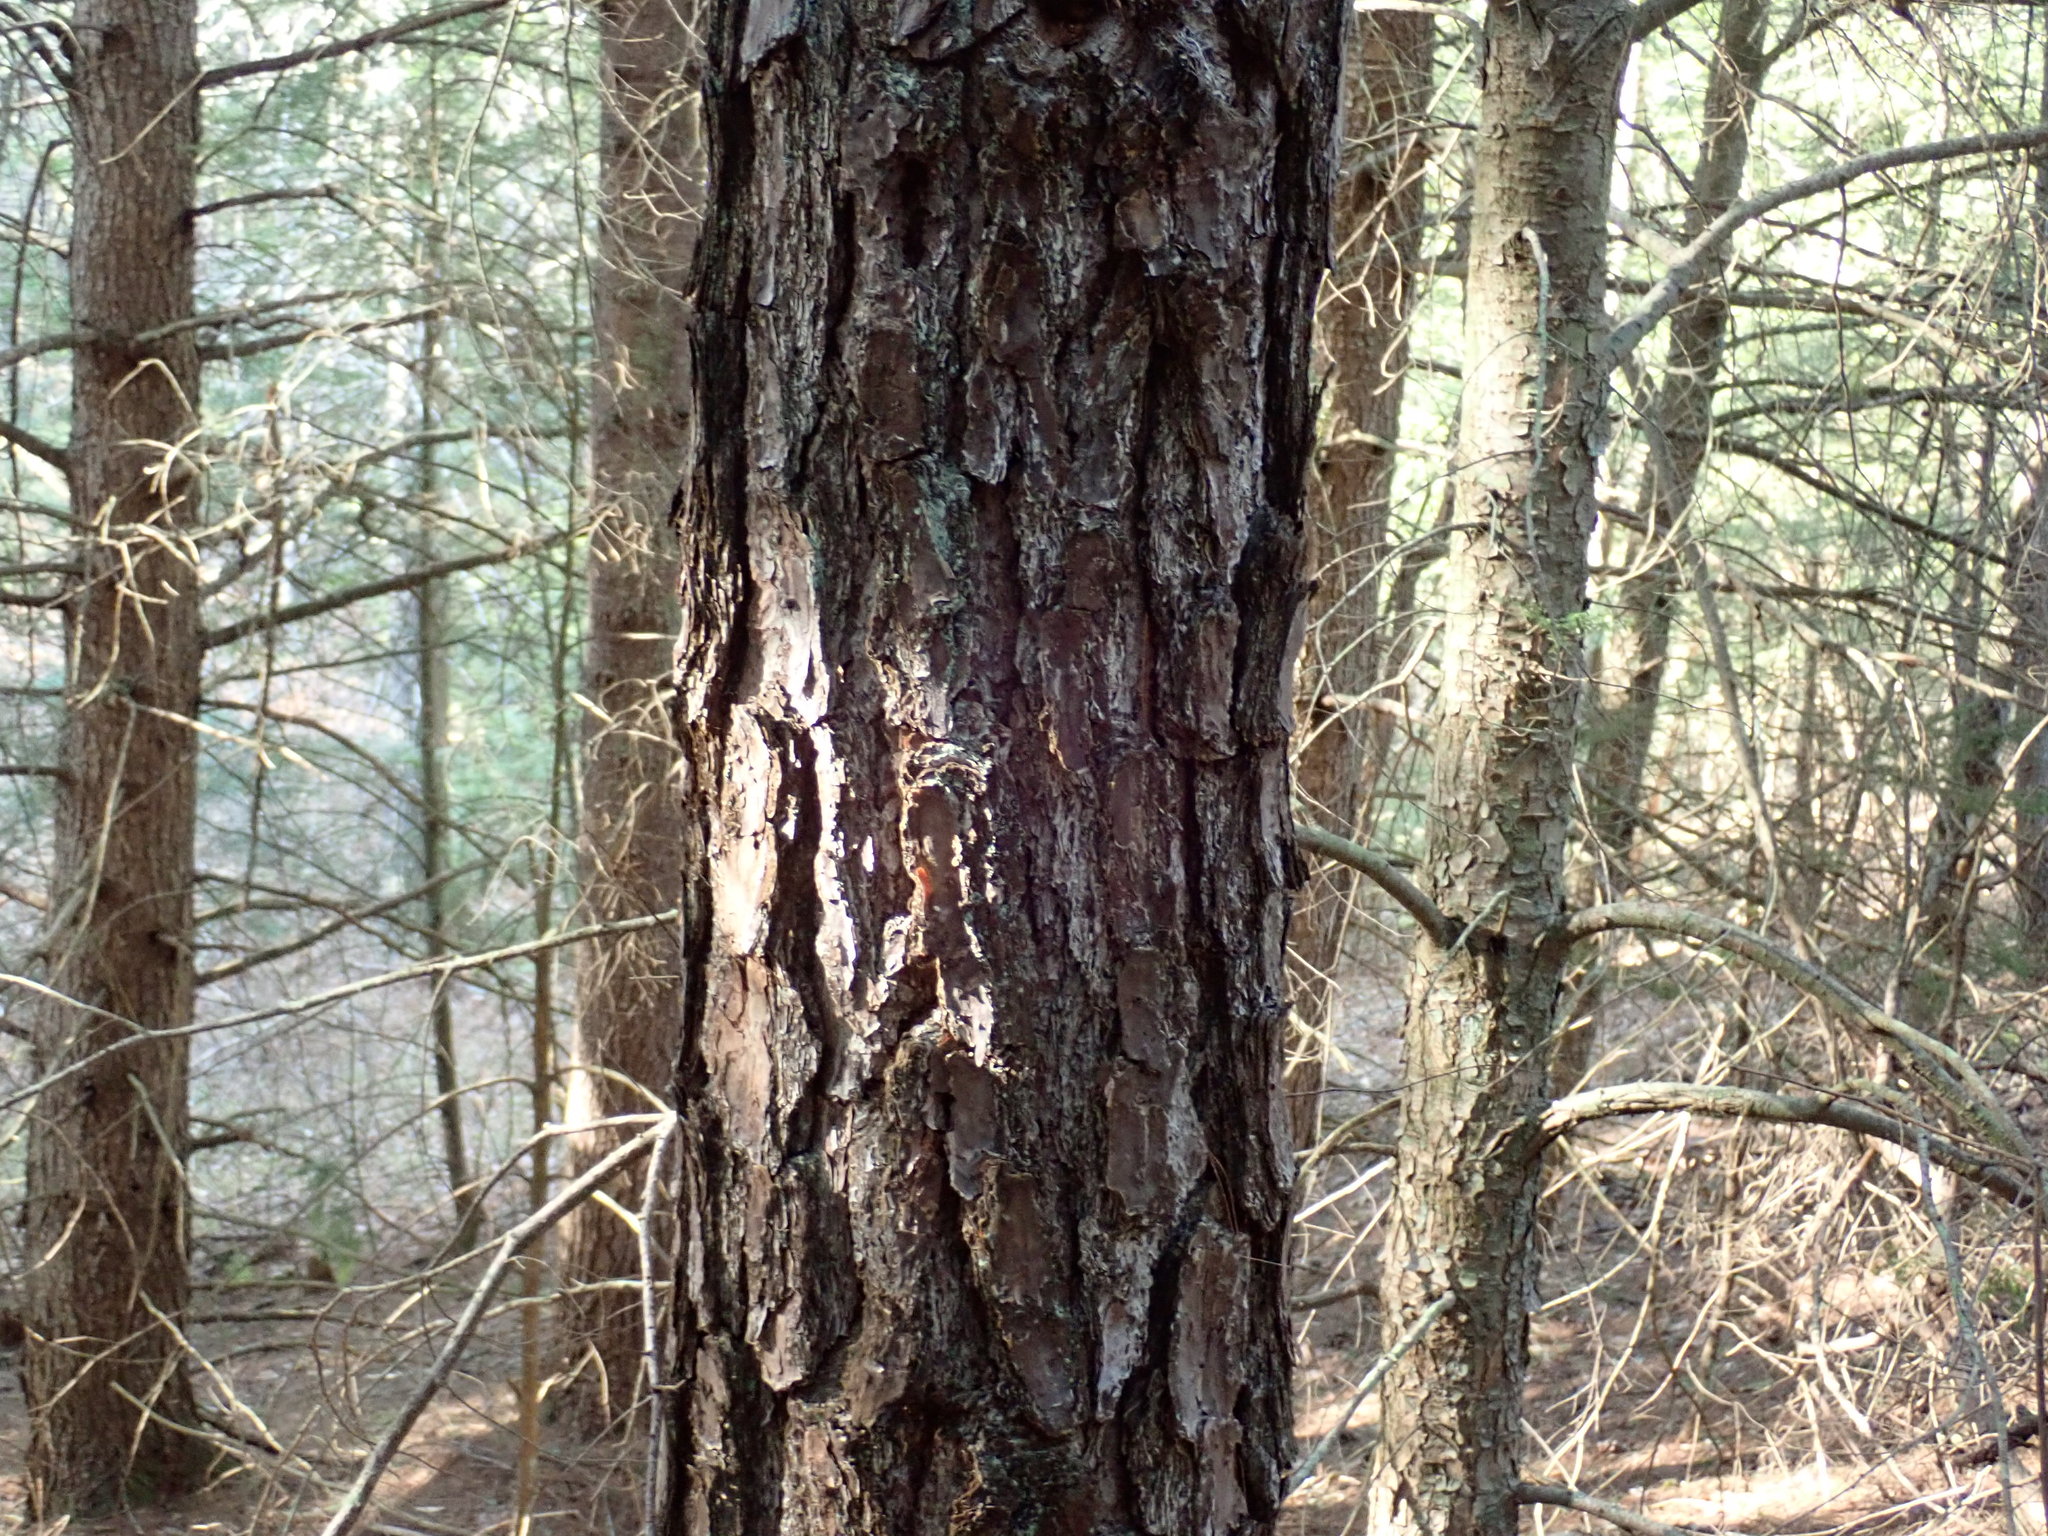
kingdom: Plantae
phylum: Tracheophyta
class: Pinopsida
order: Pinales
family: Pinaceae
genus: Pinus
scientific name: Pinus rigida
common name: Pitch pine
